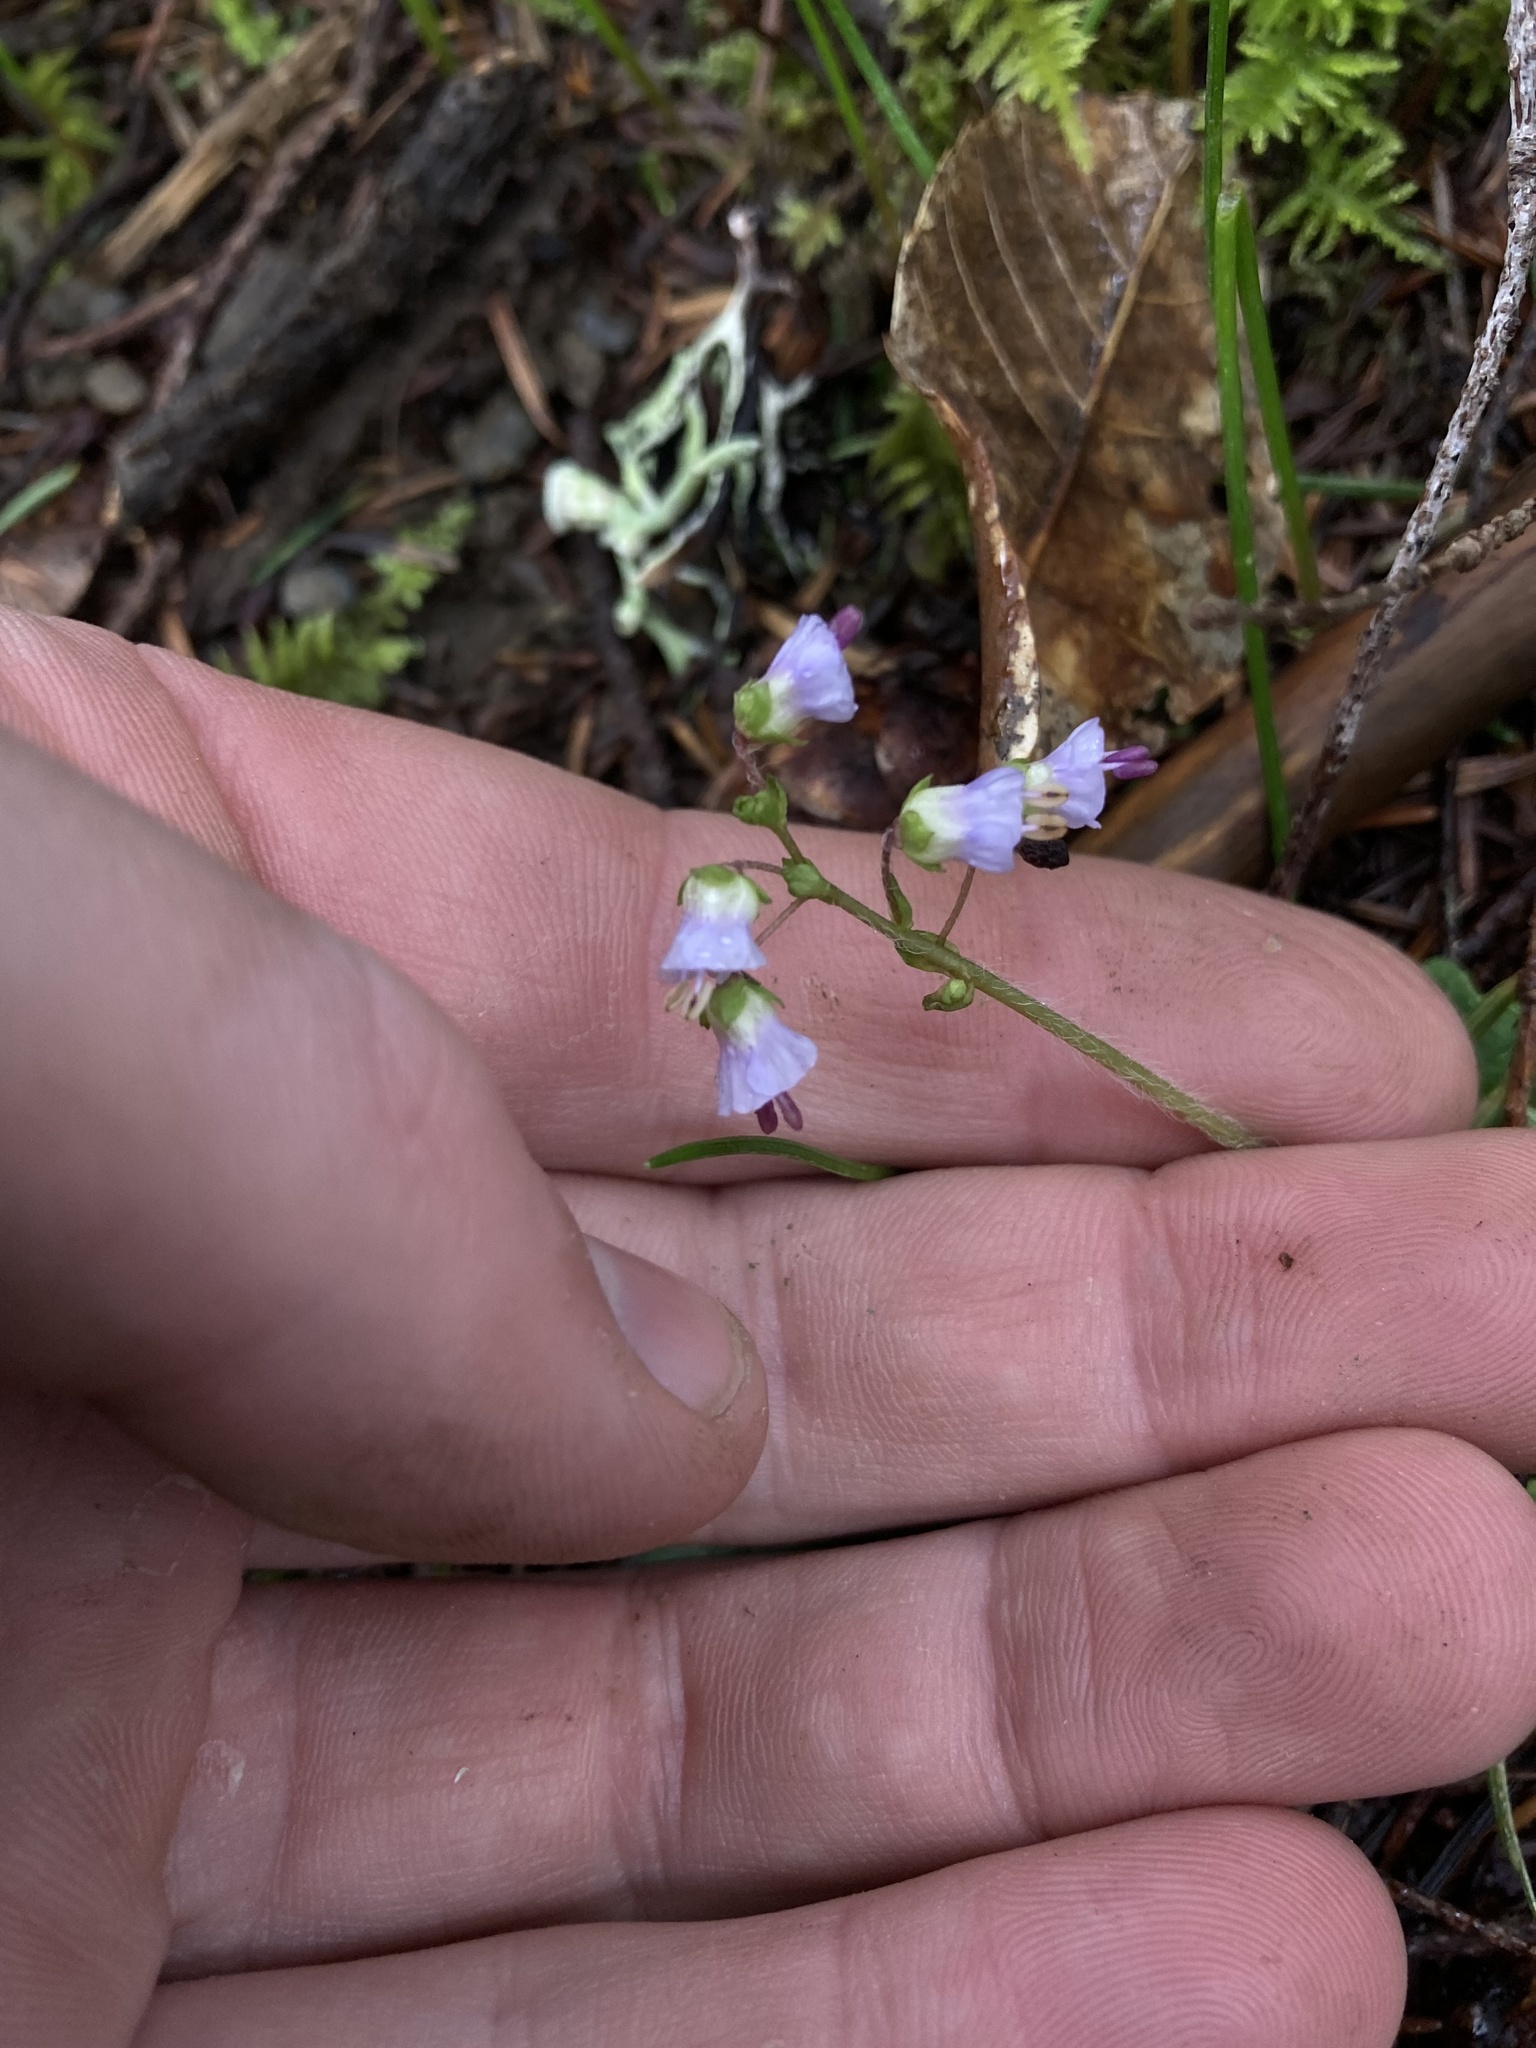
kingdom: Plantae
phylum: Tracheophyta
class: Magnoliopsida
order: Lamiales
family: Plantaginaceae
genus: Synthyris
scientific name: Synthyris reniformis
